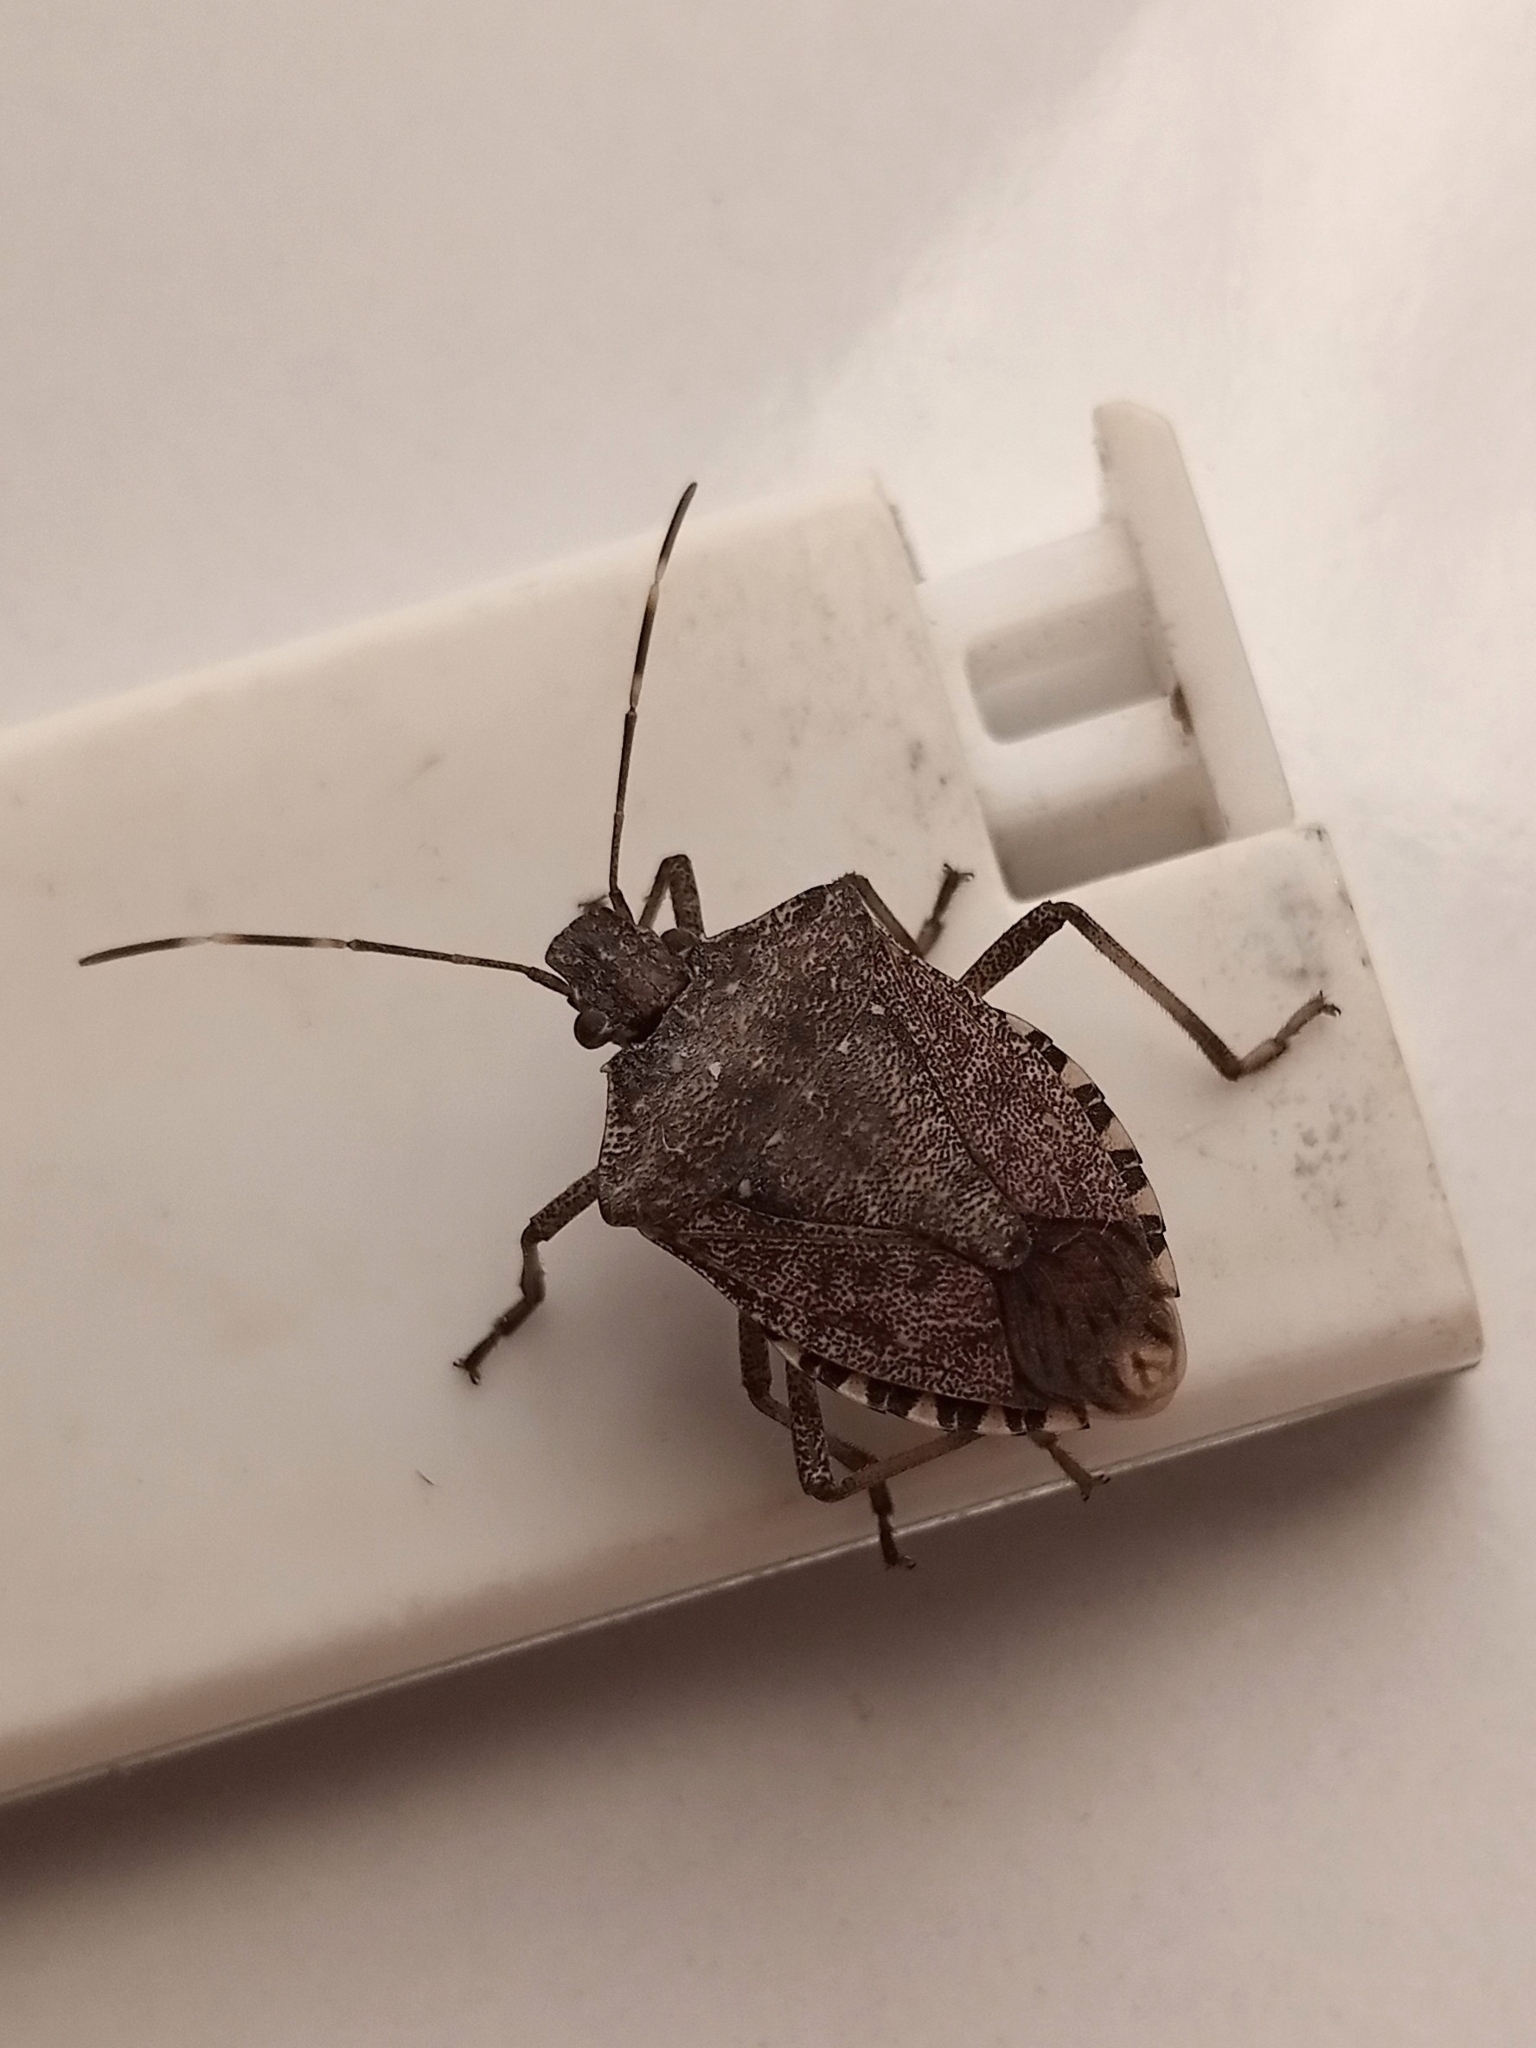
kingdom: Animalia
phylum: Arthropoda
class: Insecta
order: Hemiptera
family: Pentatomidae
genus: Halyomorpha
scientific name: Halyomorpha halys
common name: Brown marmorated stink bug
